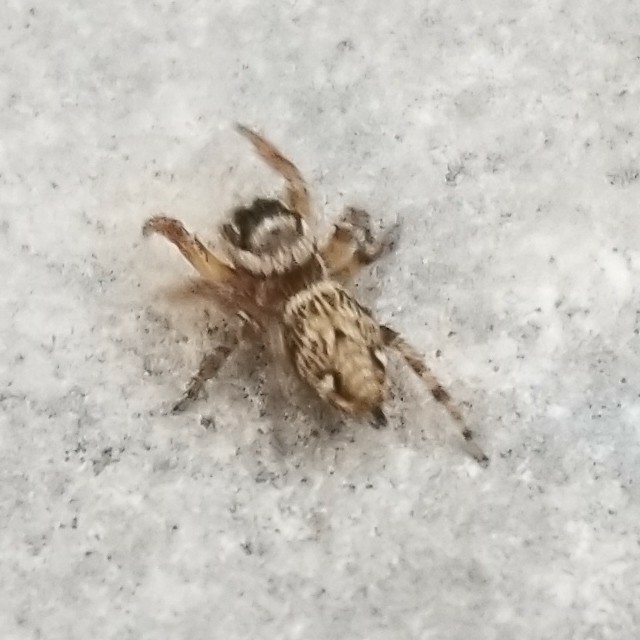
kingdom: Animalia
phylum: Arthropoda
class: Arachnida
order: Araneae
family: Salticidae
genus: Evarcha
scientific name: Evarcha jucunda
